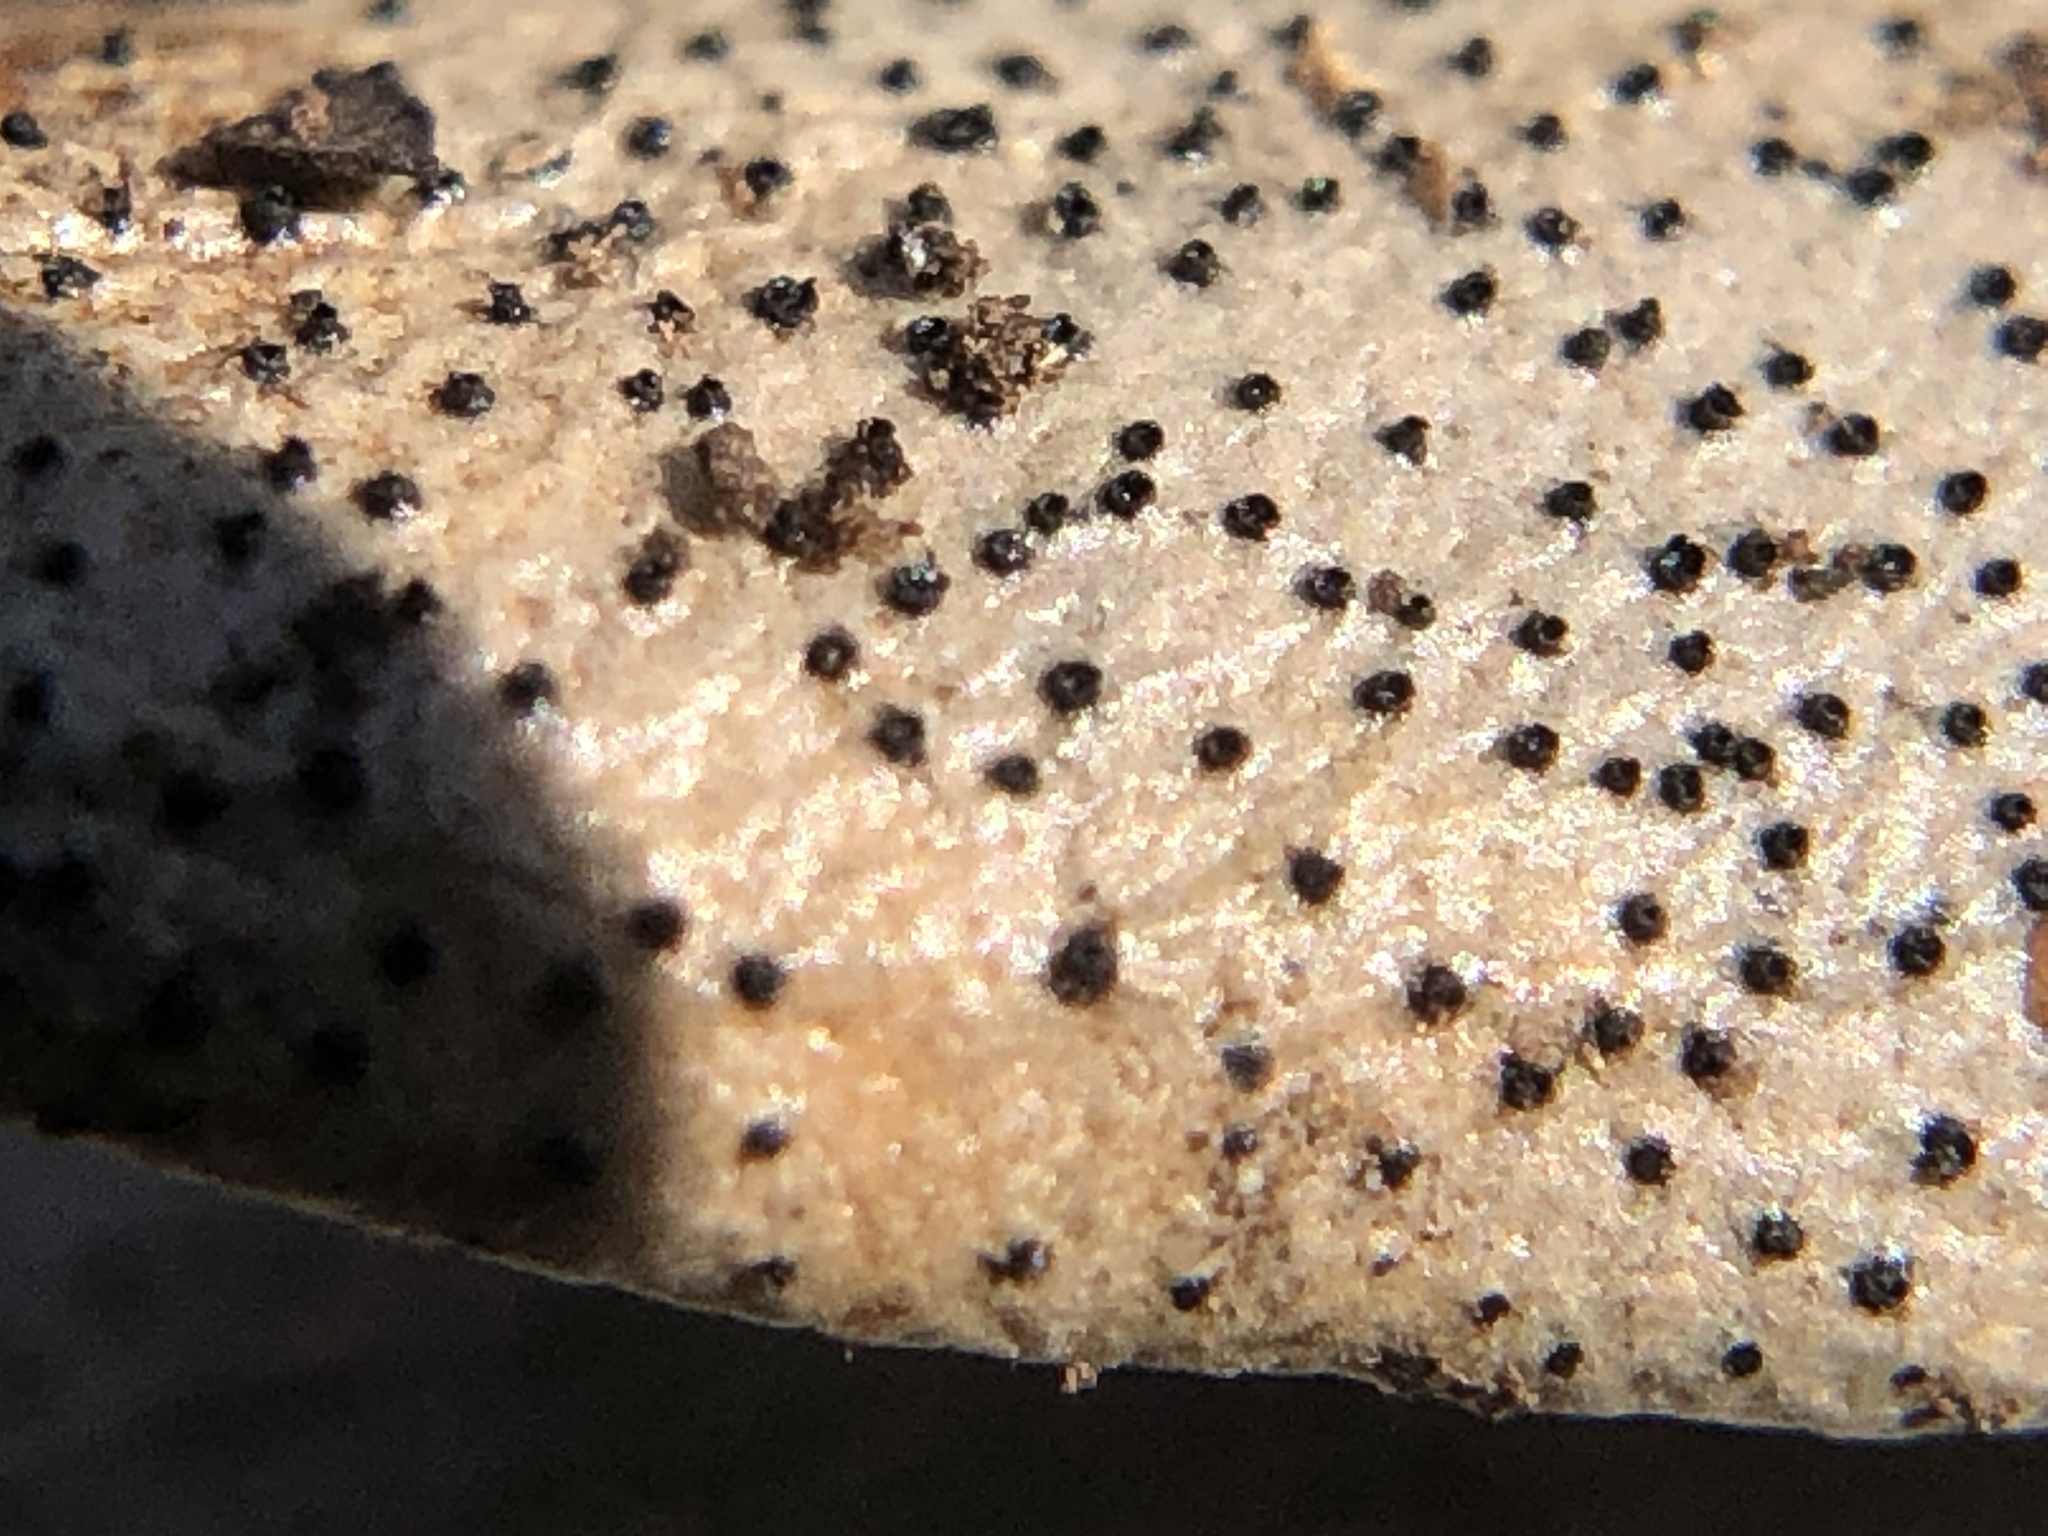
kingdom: Fungi
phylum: Ascomycota
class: Dothideomycetes
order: Botryosphaeriales
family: Botryosphaeriaceae
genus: Dothiora
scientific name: Dothiora oleae
